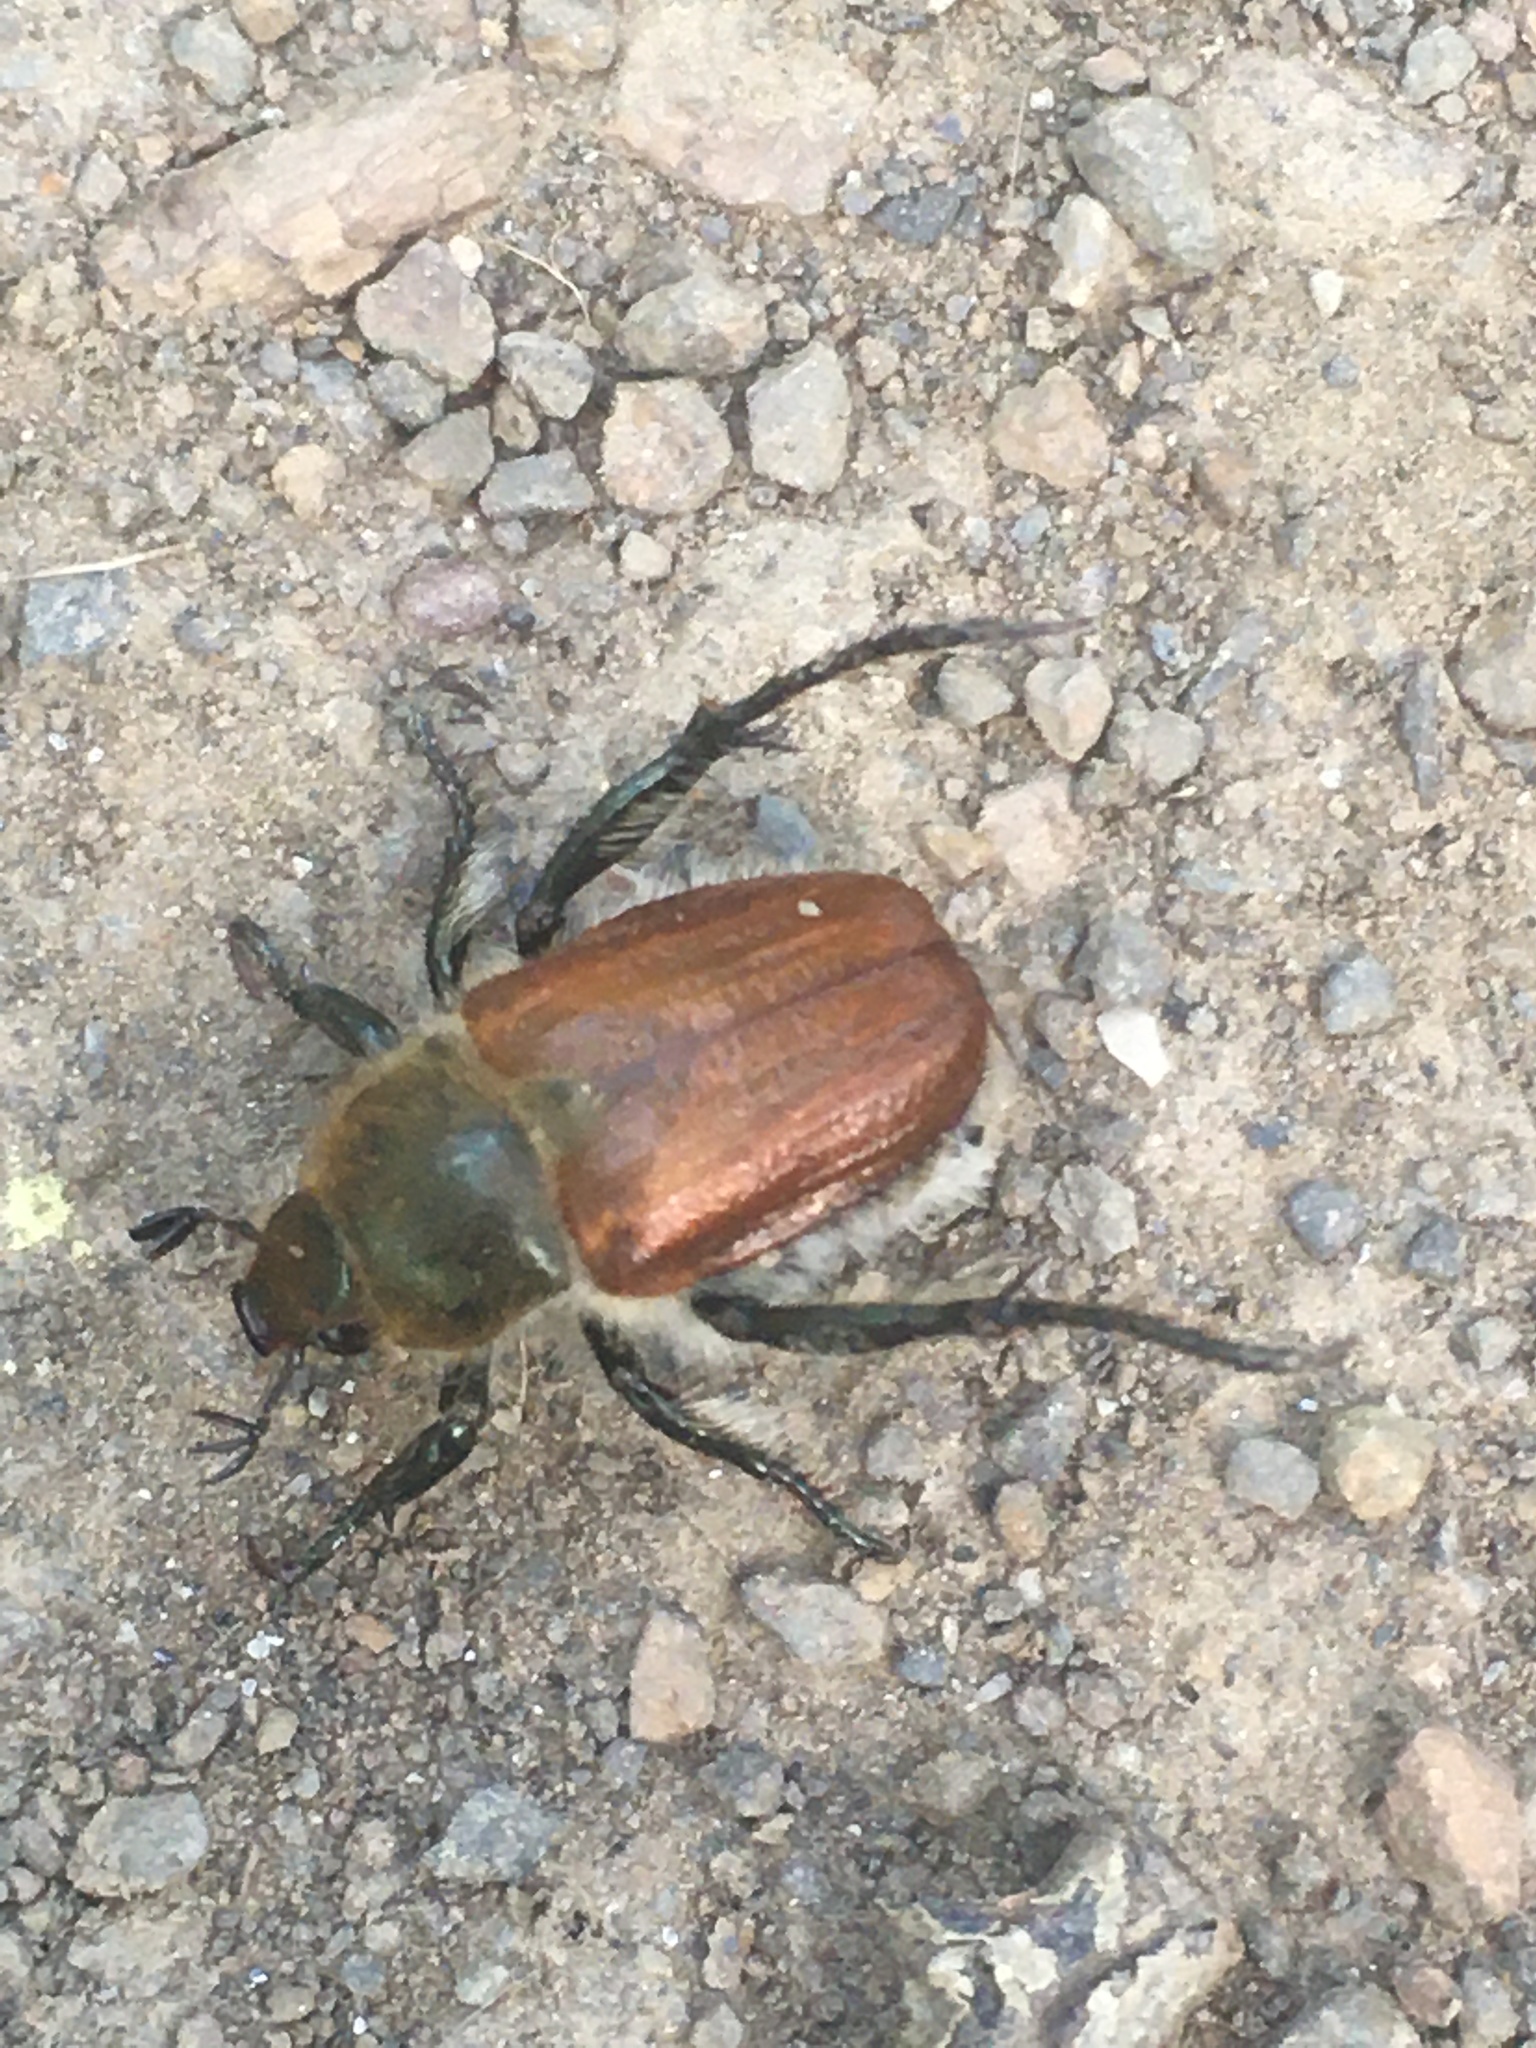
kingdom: Animalia
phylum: Arthropoda
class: Insecta
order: Coleoptera
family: Scarabaeidae
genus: Chaetopteroplia
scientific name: Chaetopteroplia segetum
